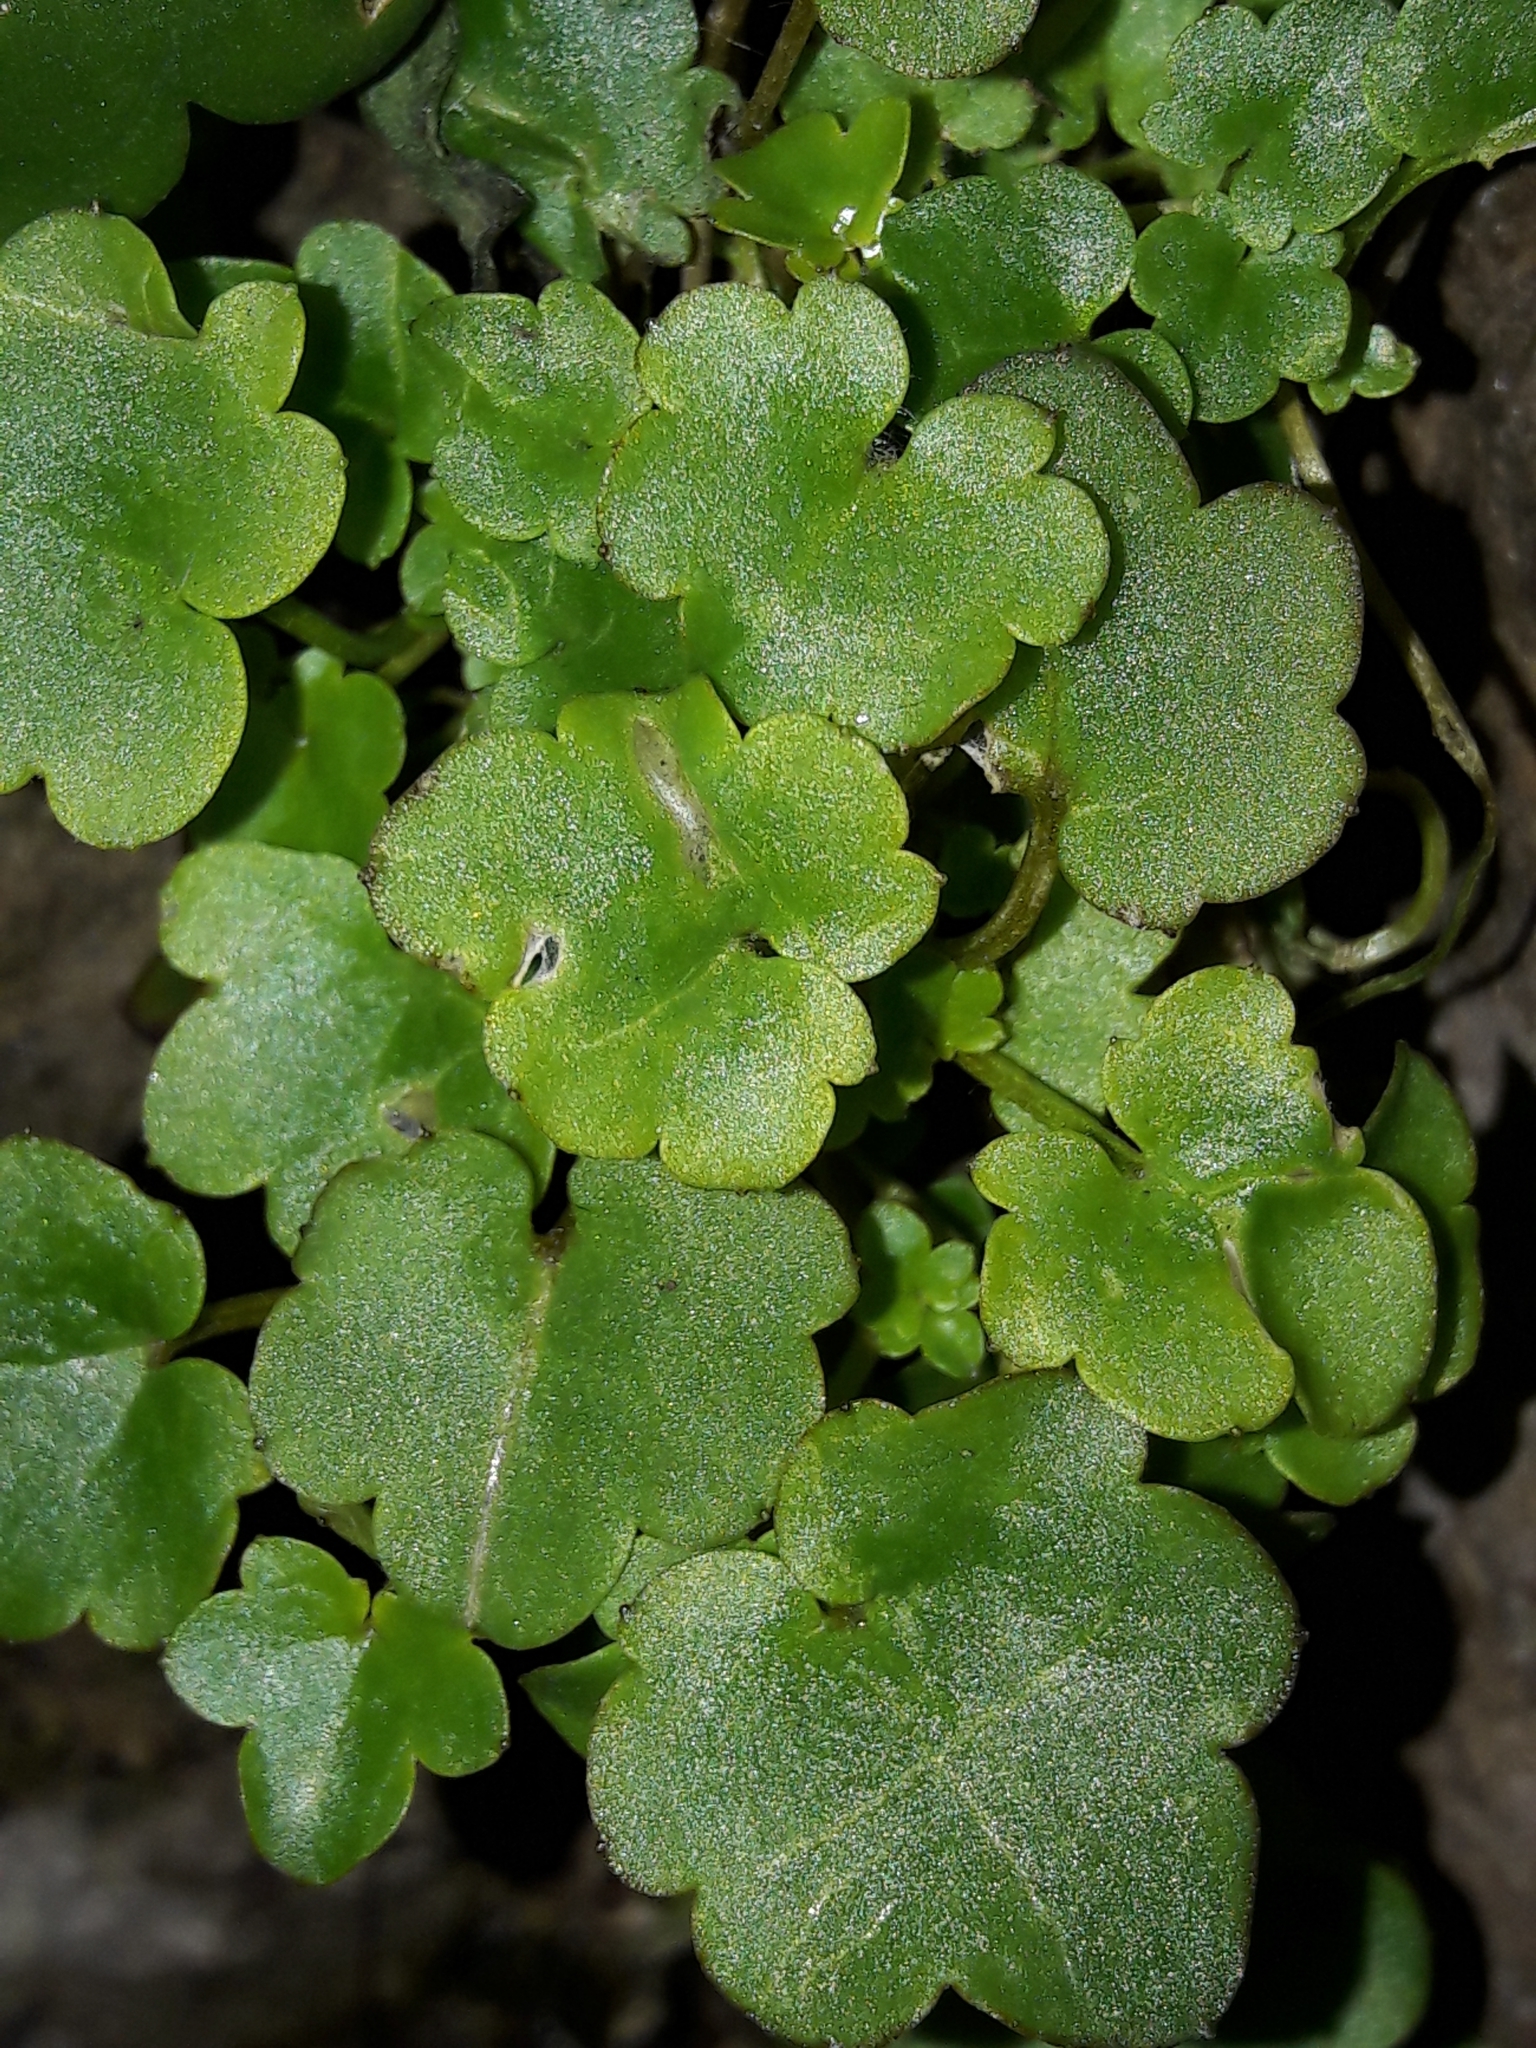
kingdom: Plantae
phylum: Tracheophyta
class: Magnoliopsida
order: Lamiales
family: Plantaginaceae
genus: Cymbalaria
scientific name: Cymbalaria muralis
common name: Ivy-leaved toadflax
